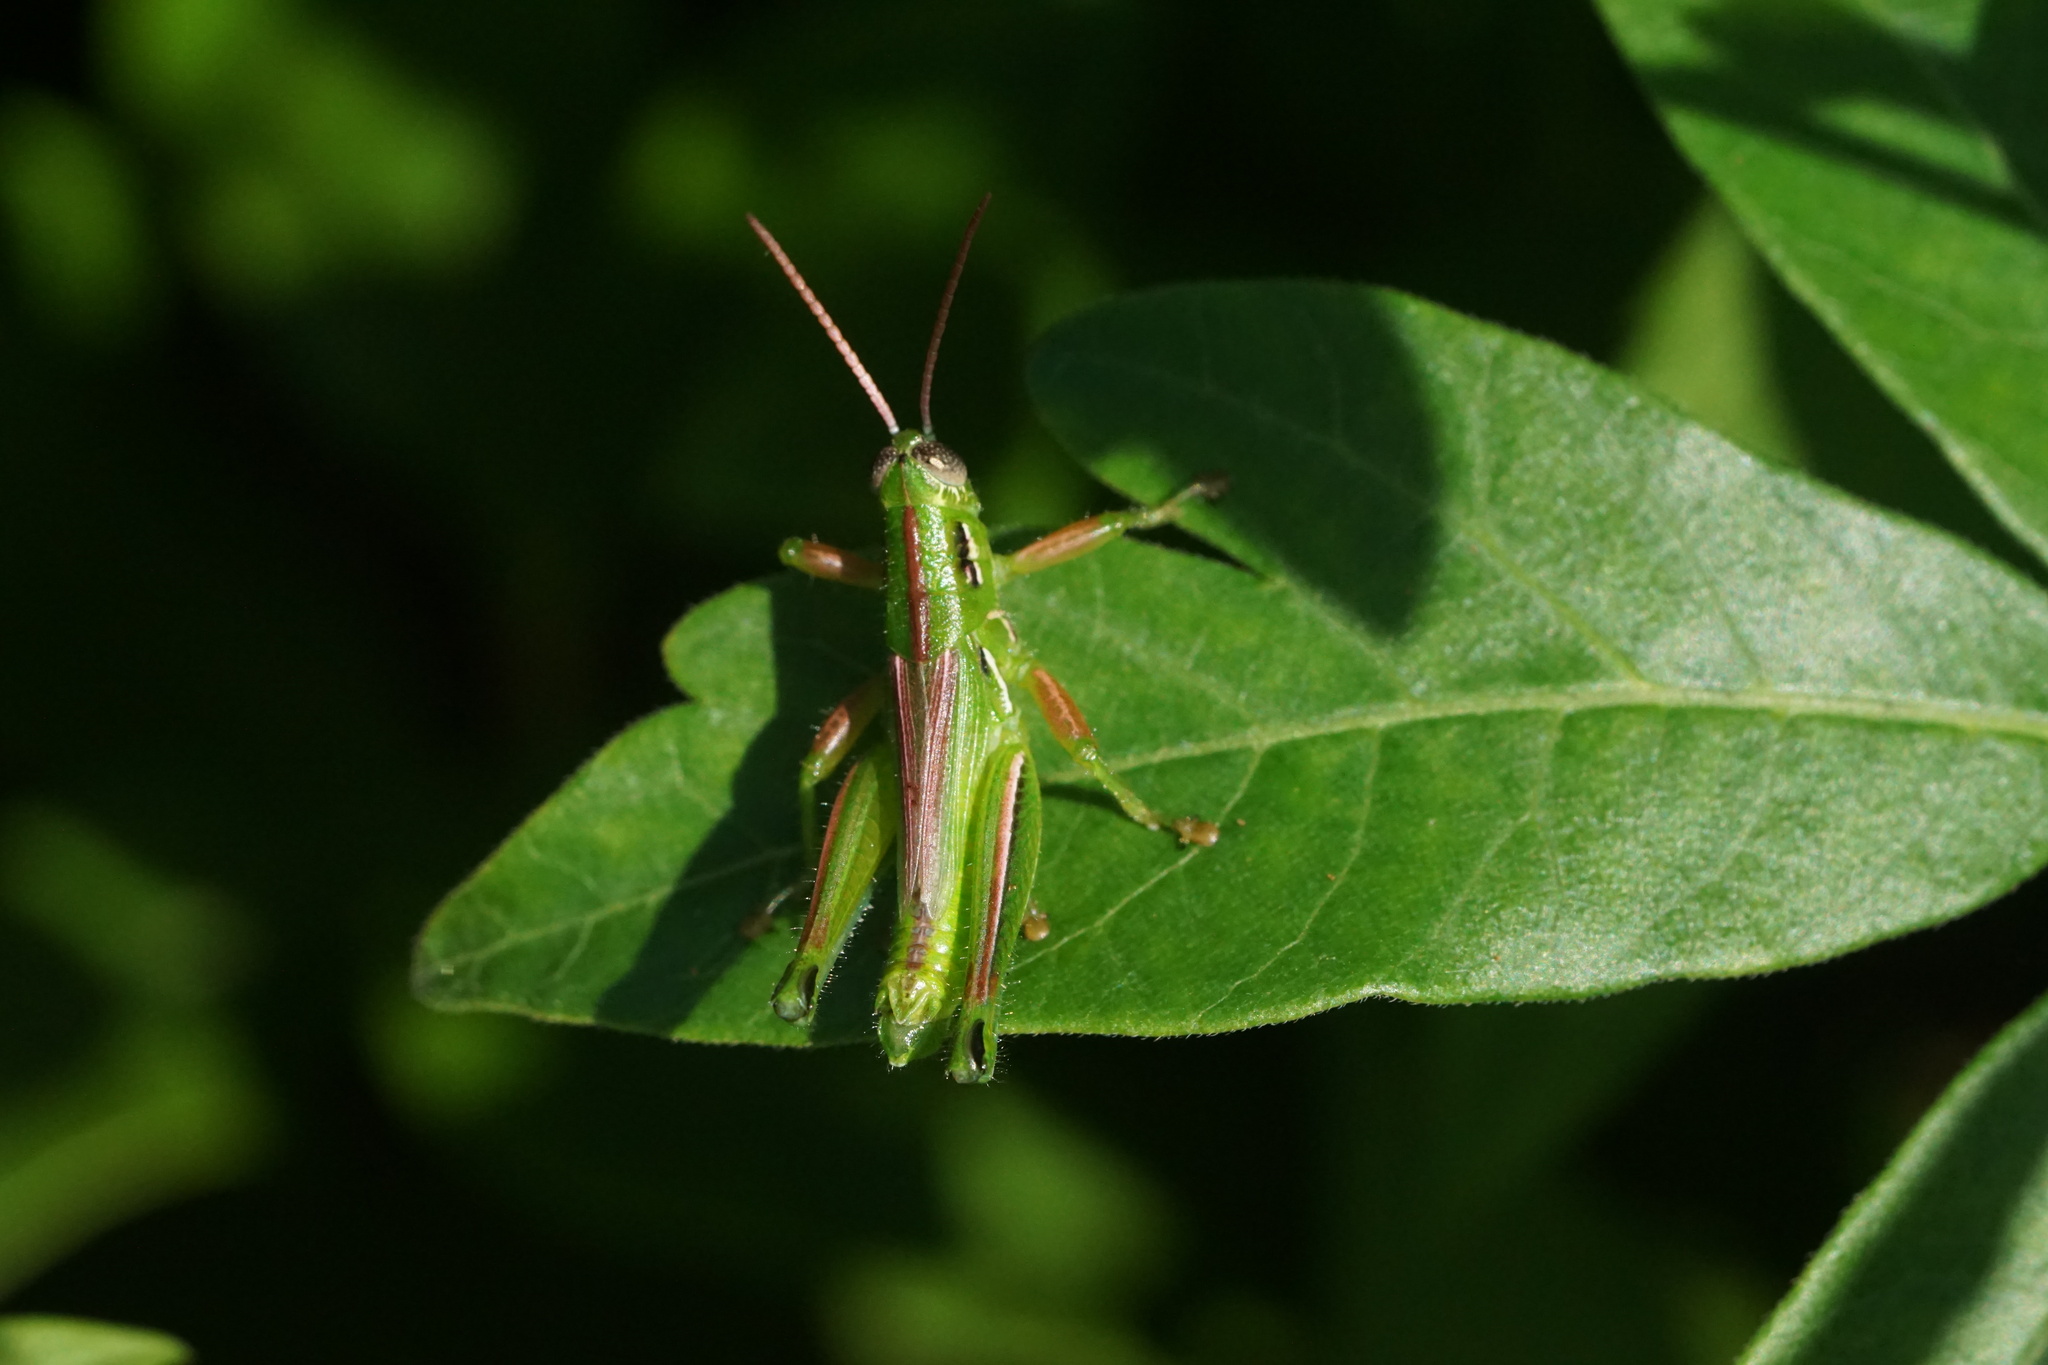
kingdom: Animalia
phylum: Arthropoda
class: Insecta
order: Orthoptera
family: Acrididae
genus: Hesperotettix
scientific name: Hesperotettix viridis
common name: Meadow purple-striped grasshopper
